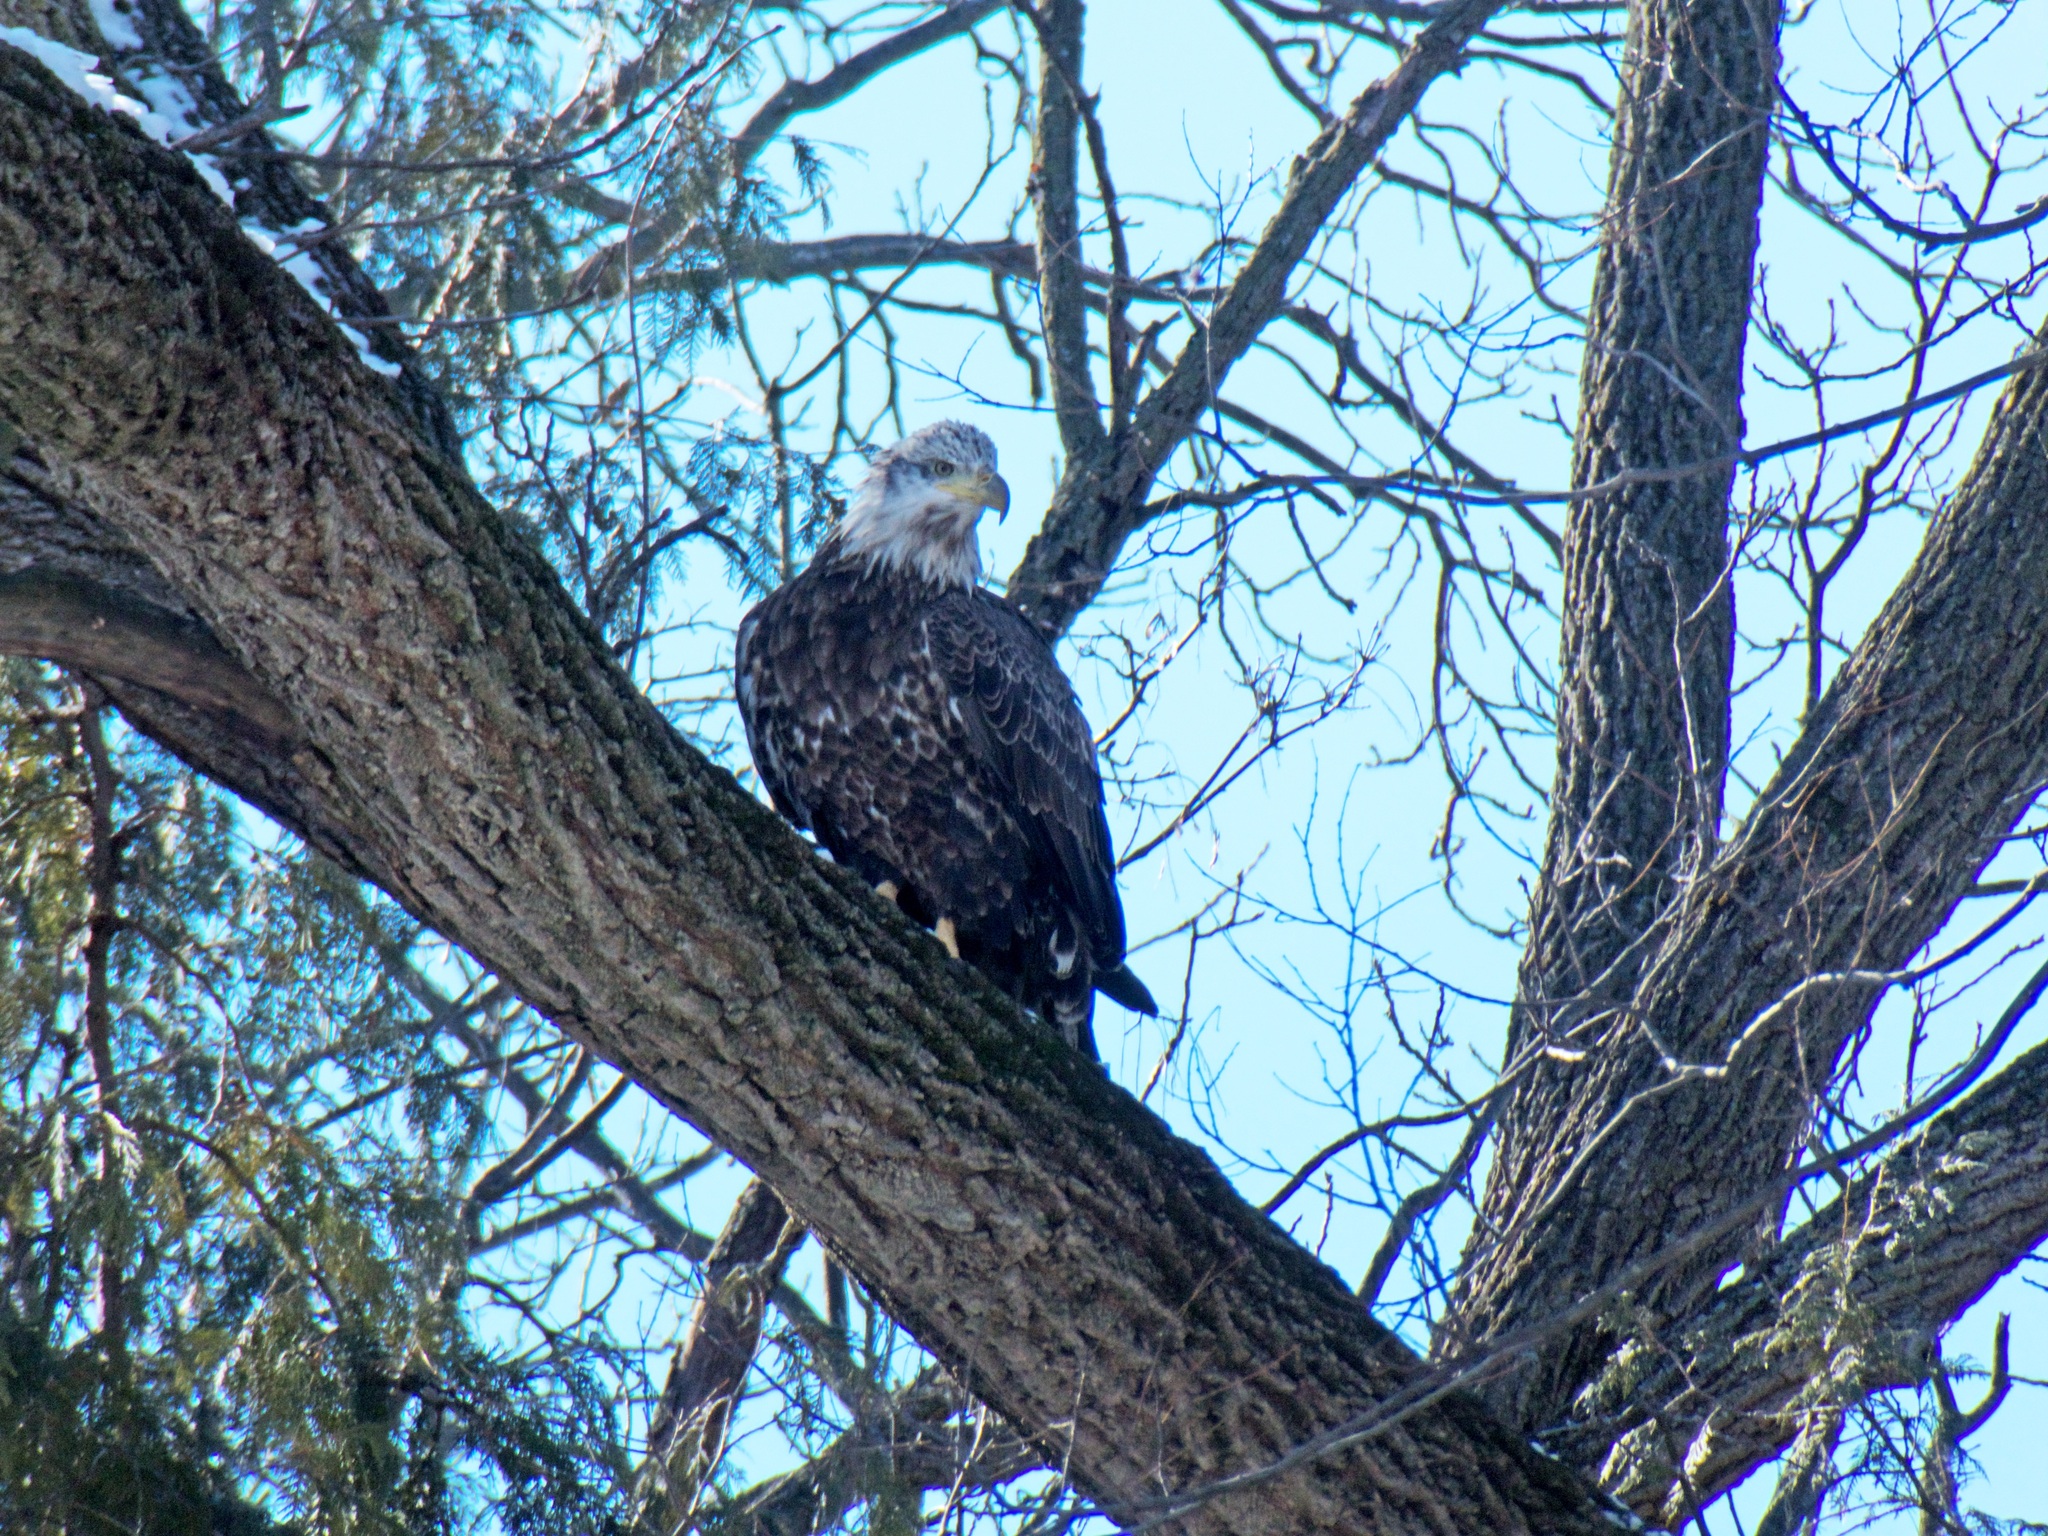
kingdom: Animalia
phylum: Chordata
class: Aves
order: Accipitriformes
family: Accipitridae
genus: Haliaeetus
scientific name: Haliaeetus leucocephalus
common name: Bald eagle
